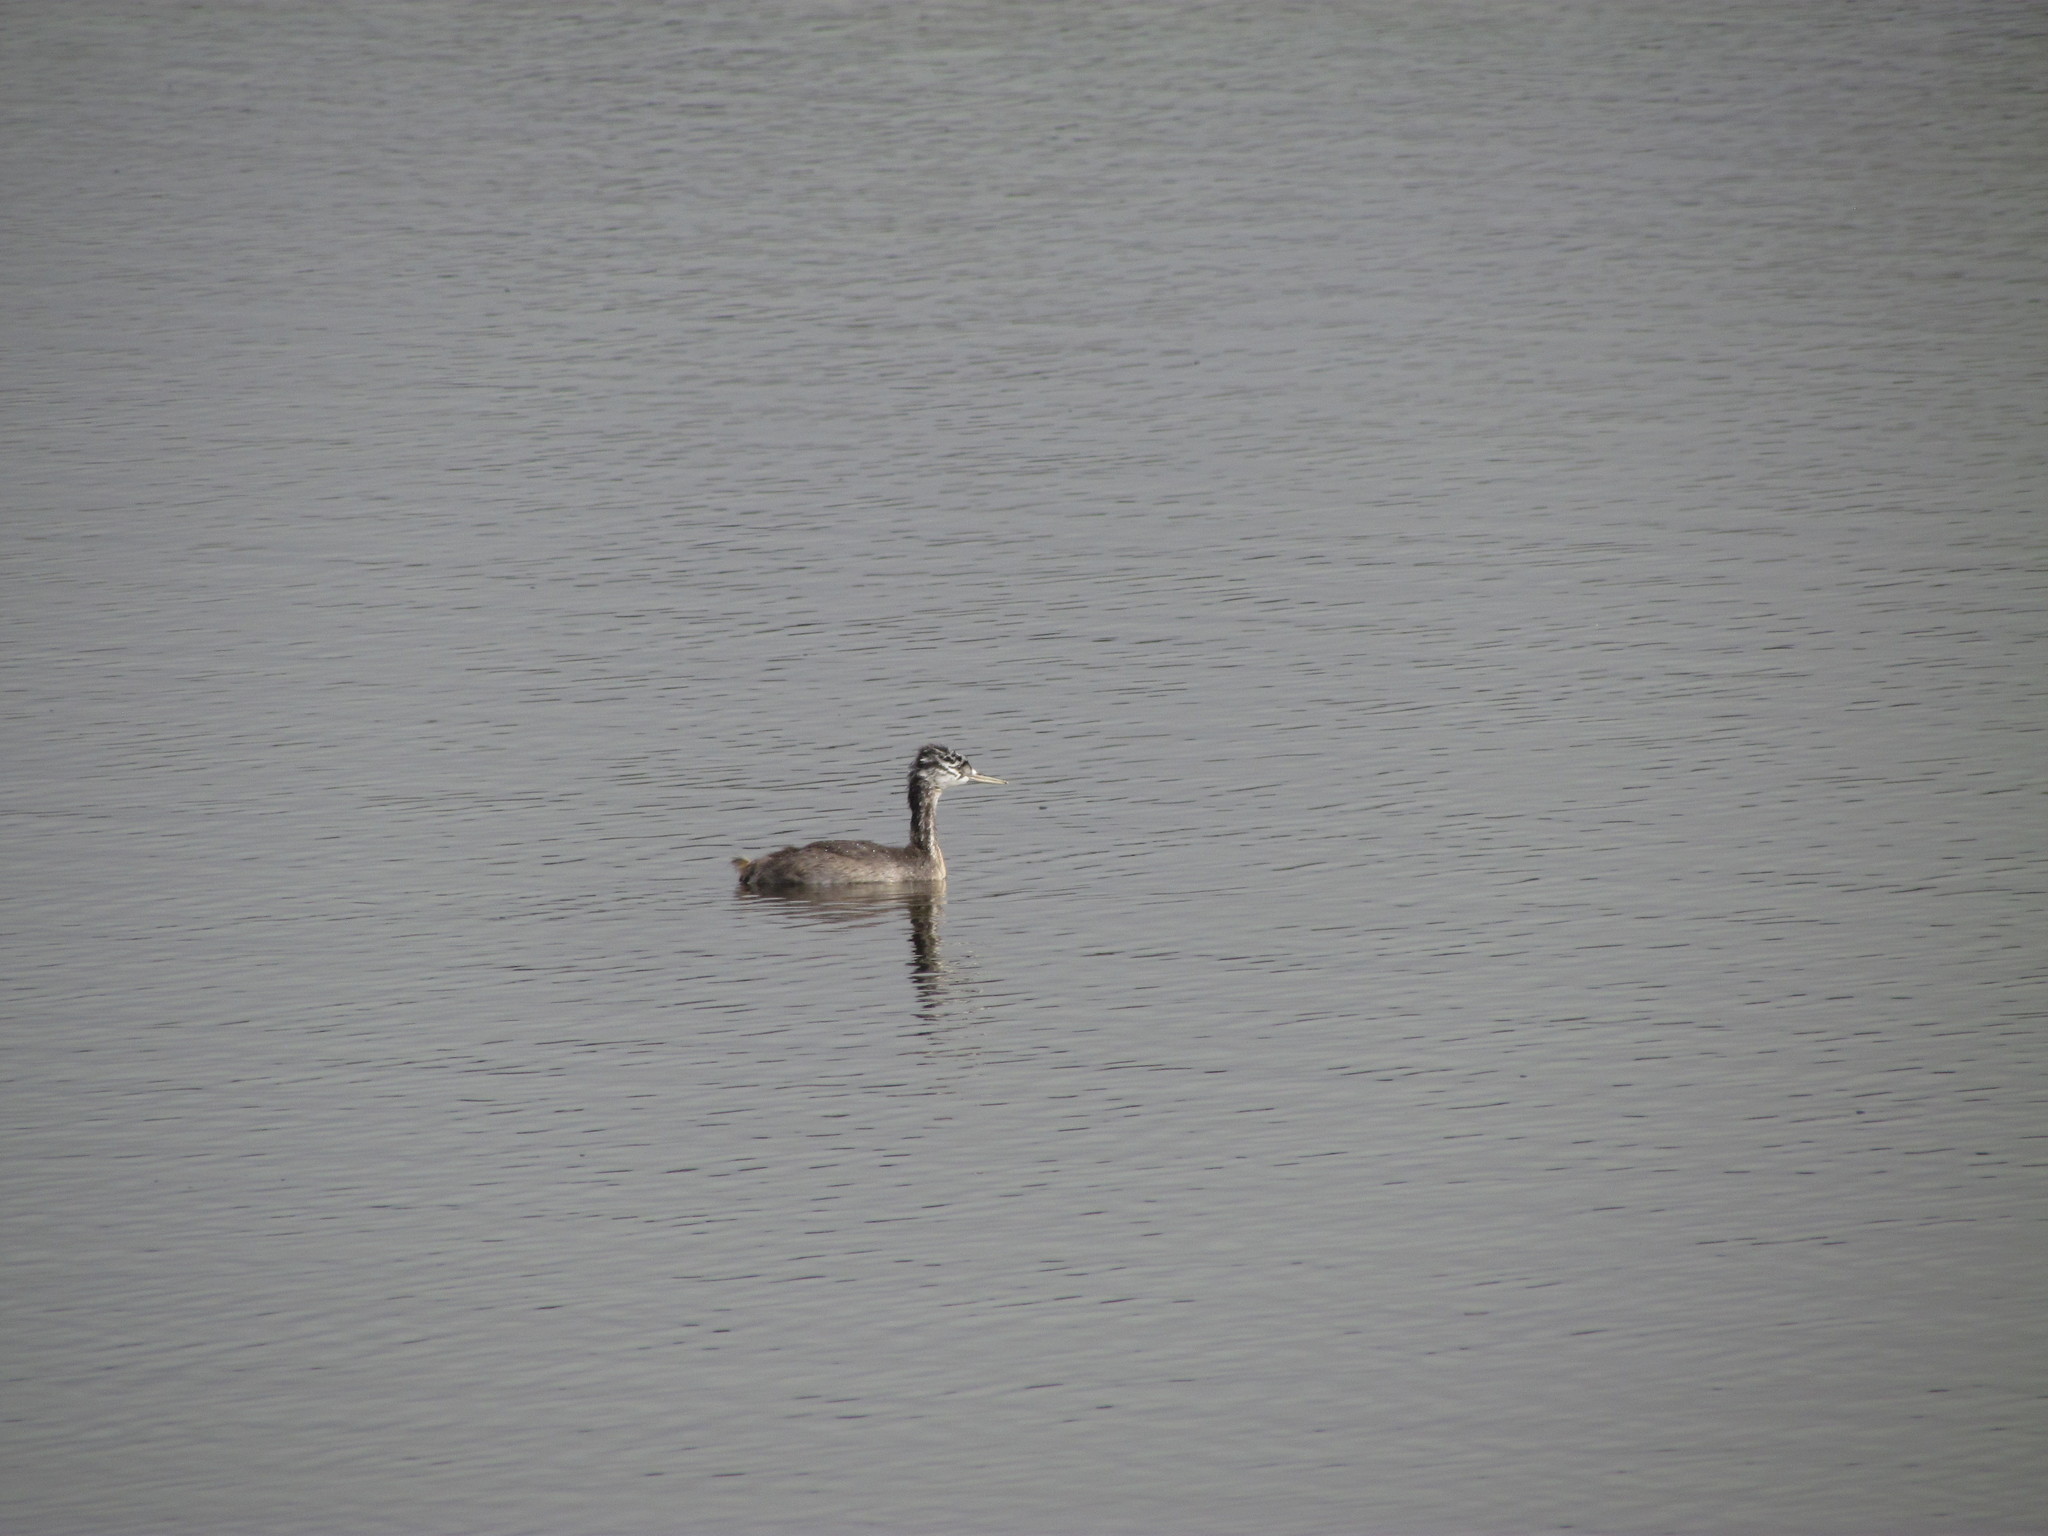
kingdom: Animalia
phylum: Chordata
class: Aves
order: Podicipediformes
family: Podicipedidae
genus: Podiceps
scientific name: Podiceps major
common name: Great grebe
